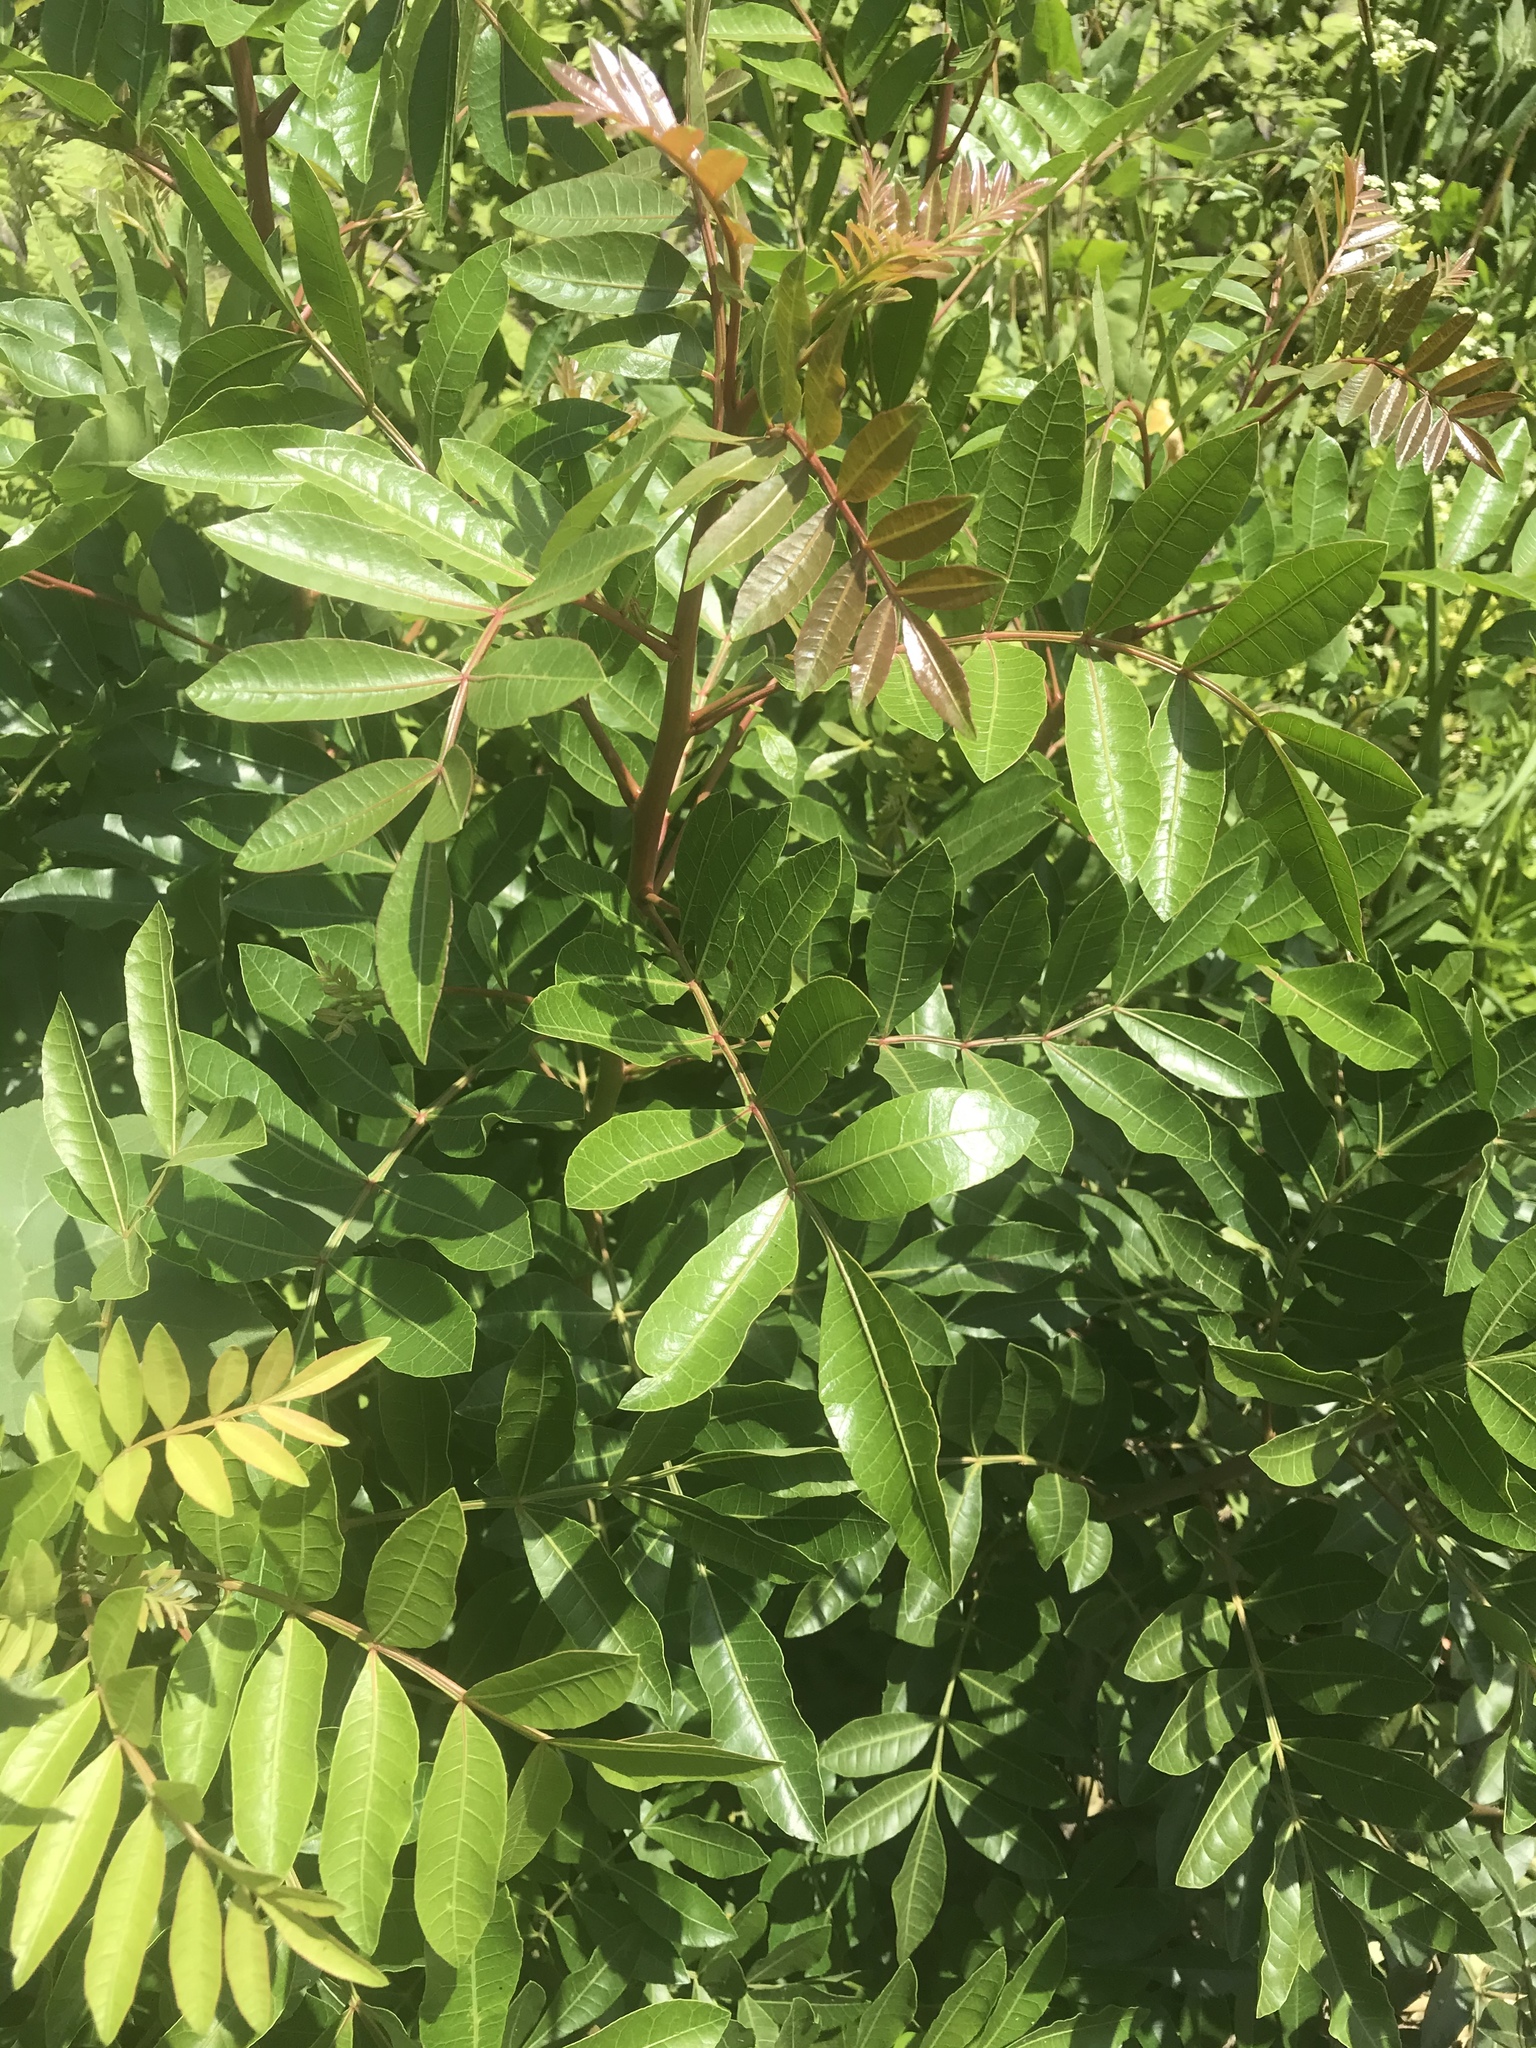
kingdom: Plantae
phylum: Tracheophyta
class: Magnoliopsida
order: Sapindales
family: Anacardiaceae
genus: Schinus
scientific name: Schinus terebinthifolia
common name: Brazilian peppertree
